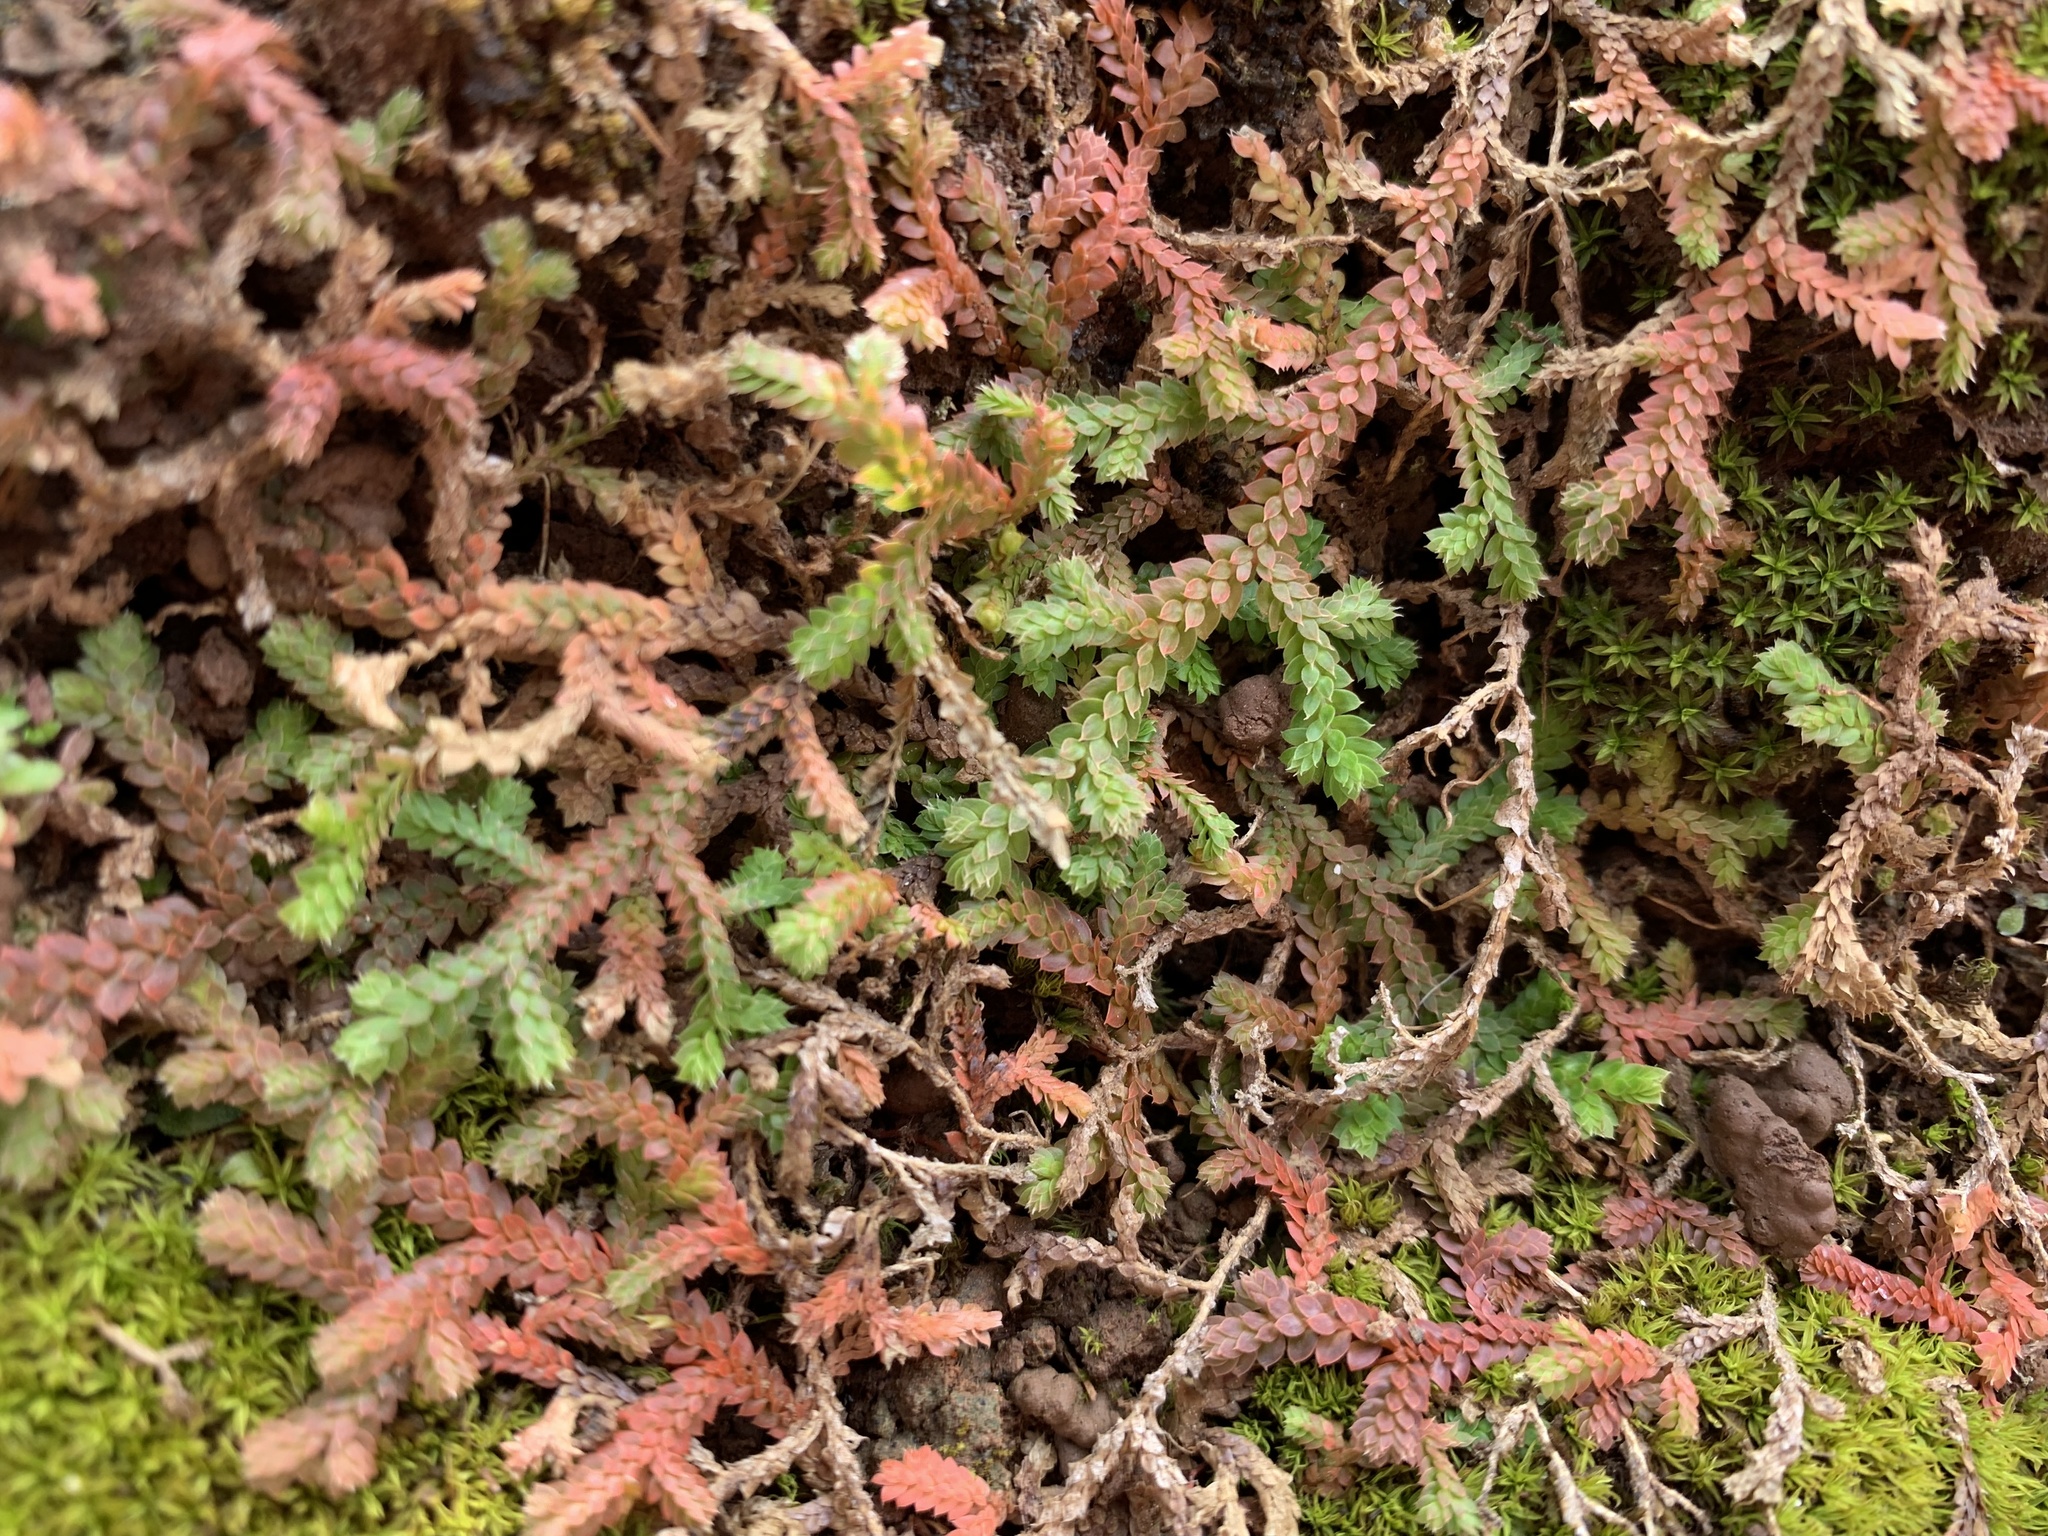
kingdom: Plantae
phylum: Tracheophyta
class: Lycopodiopsida
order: Selaginellales
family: Selaginellaceae
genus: Selaginella
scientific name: Selaginella denticulata
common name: Toothed-leaved clubmoss
